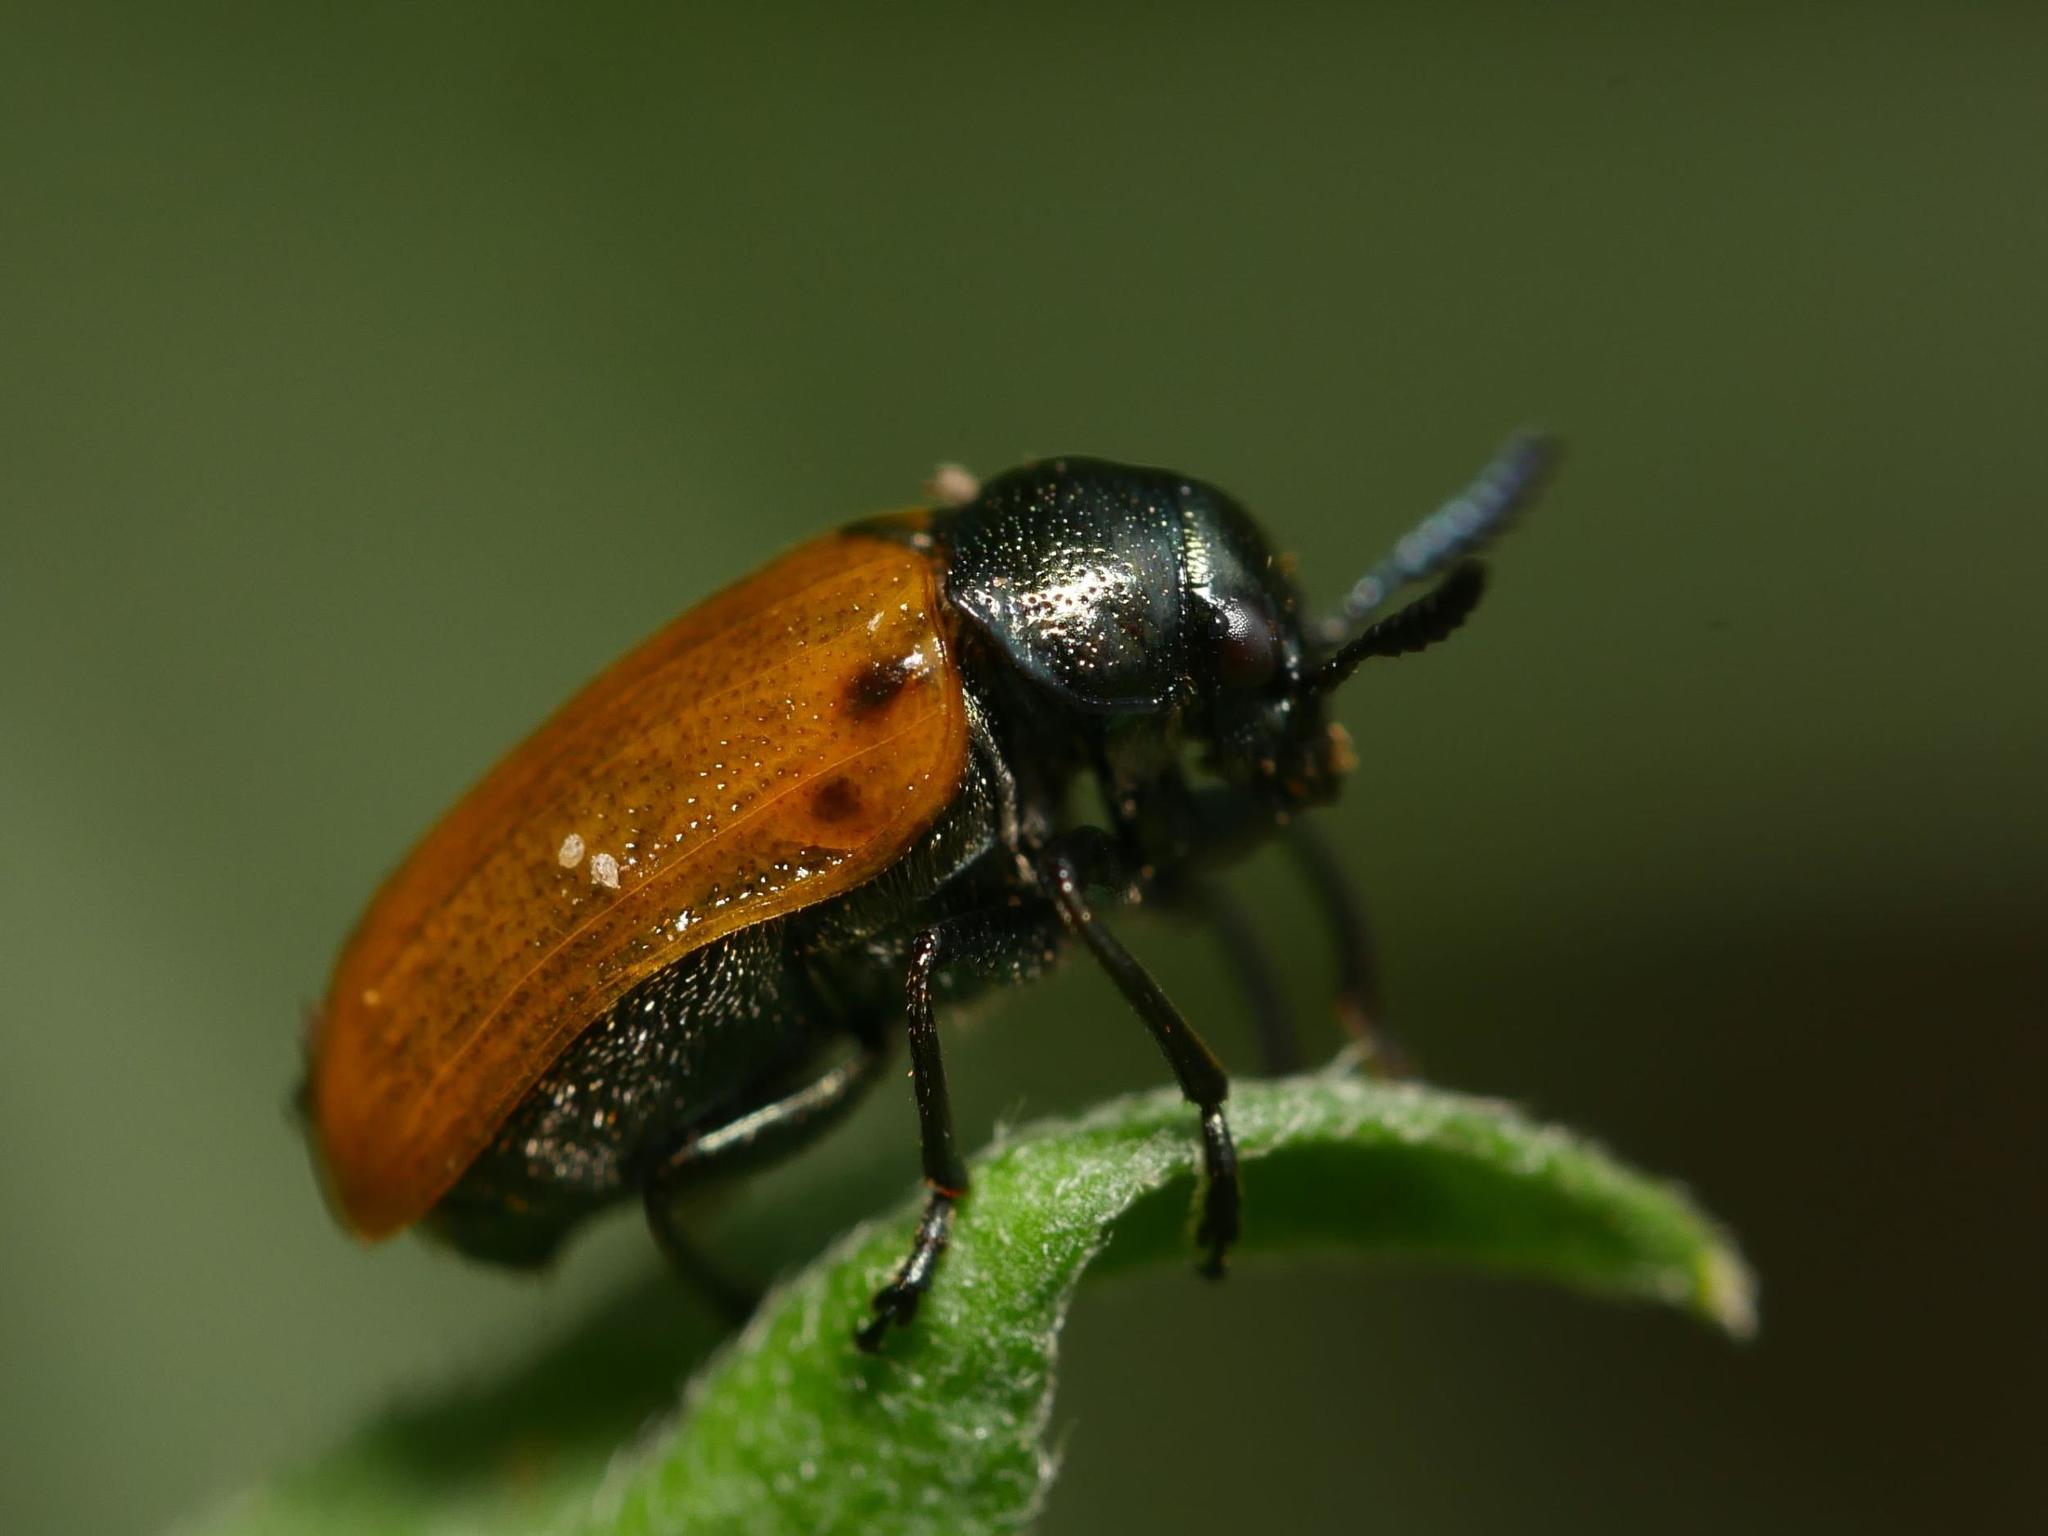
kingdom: Animalia
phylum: Arthropoda
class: Insecta
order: Coleoptera
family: Chrysomelidae
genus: Labidostomis
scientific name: Labidostomis longimana
